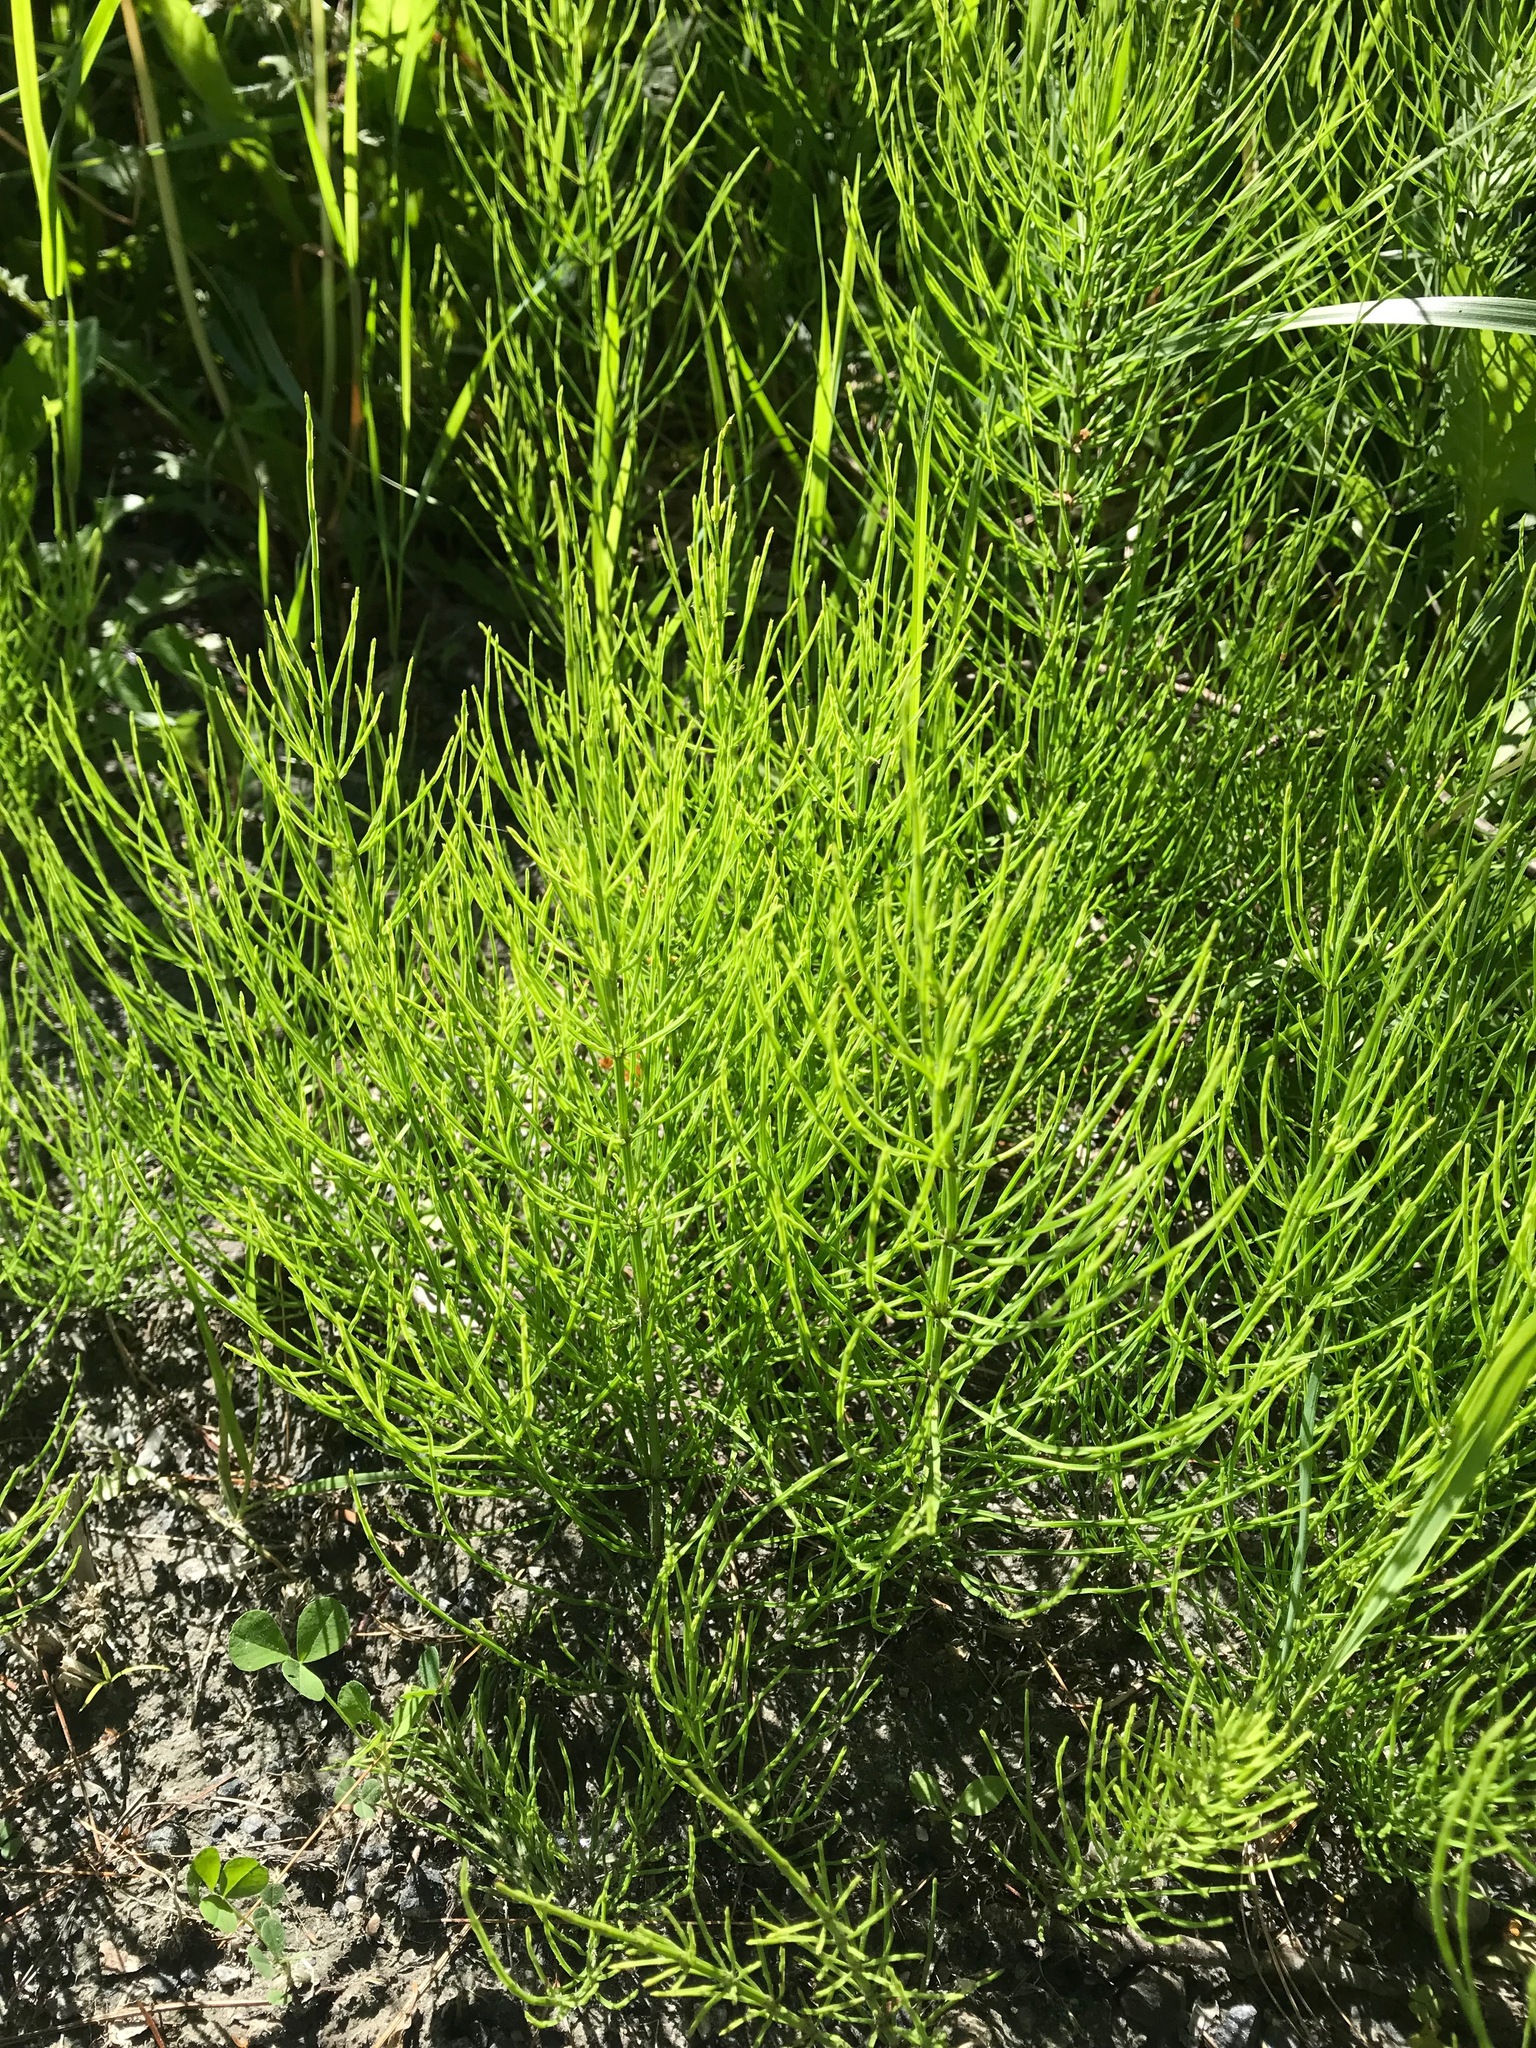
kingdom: Plantae
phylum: Tracheophyta
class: Polypodiopsida
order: Equisetales
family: Equisetaceae
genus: Equisetum
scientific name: Equisetum arvense
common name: Field horsetail
